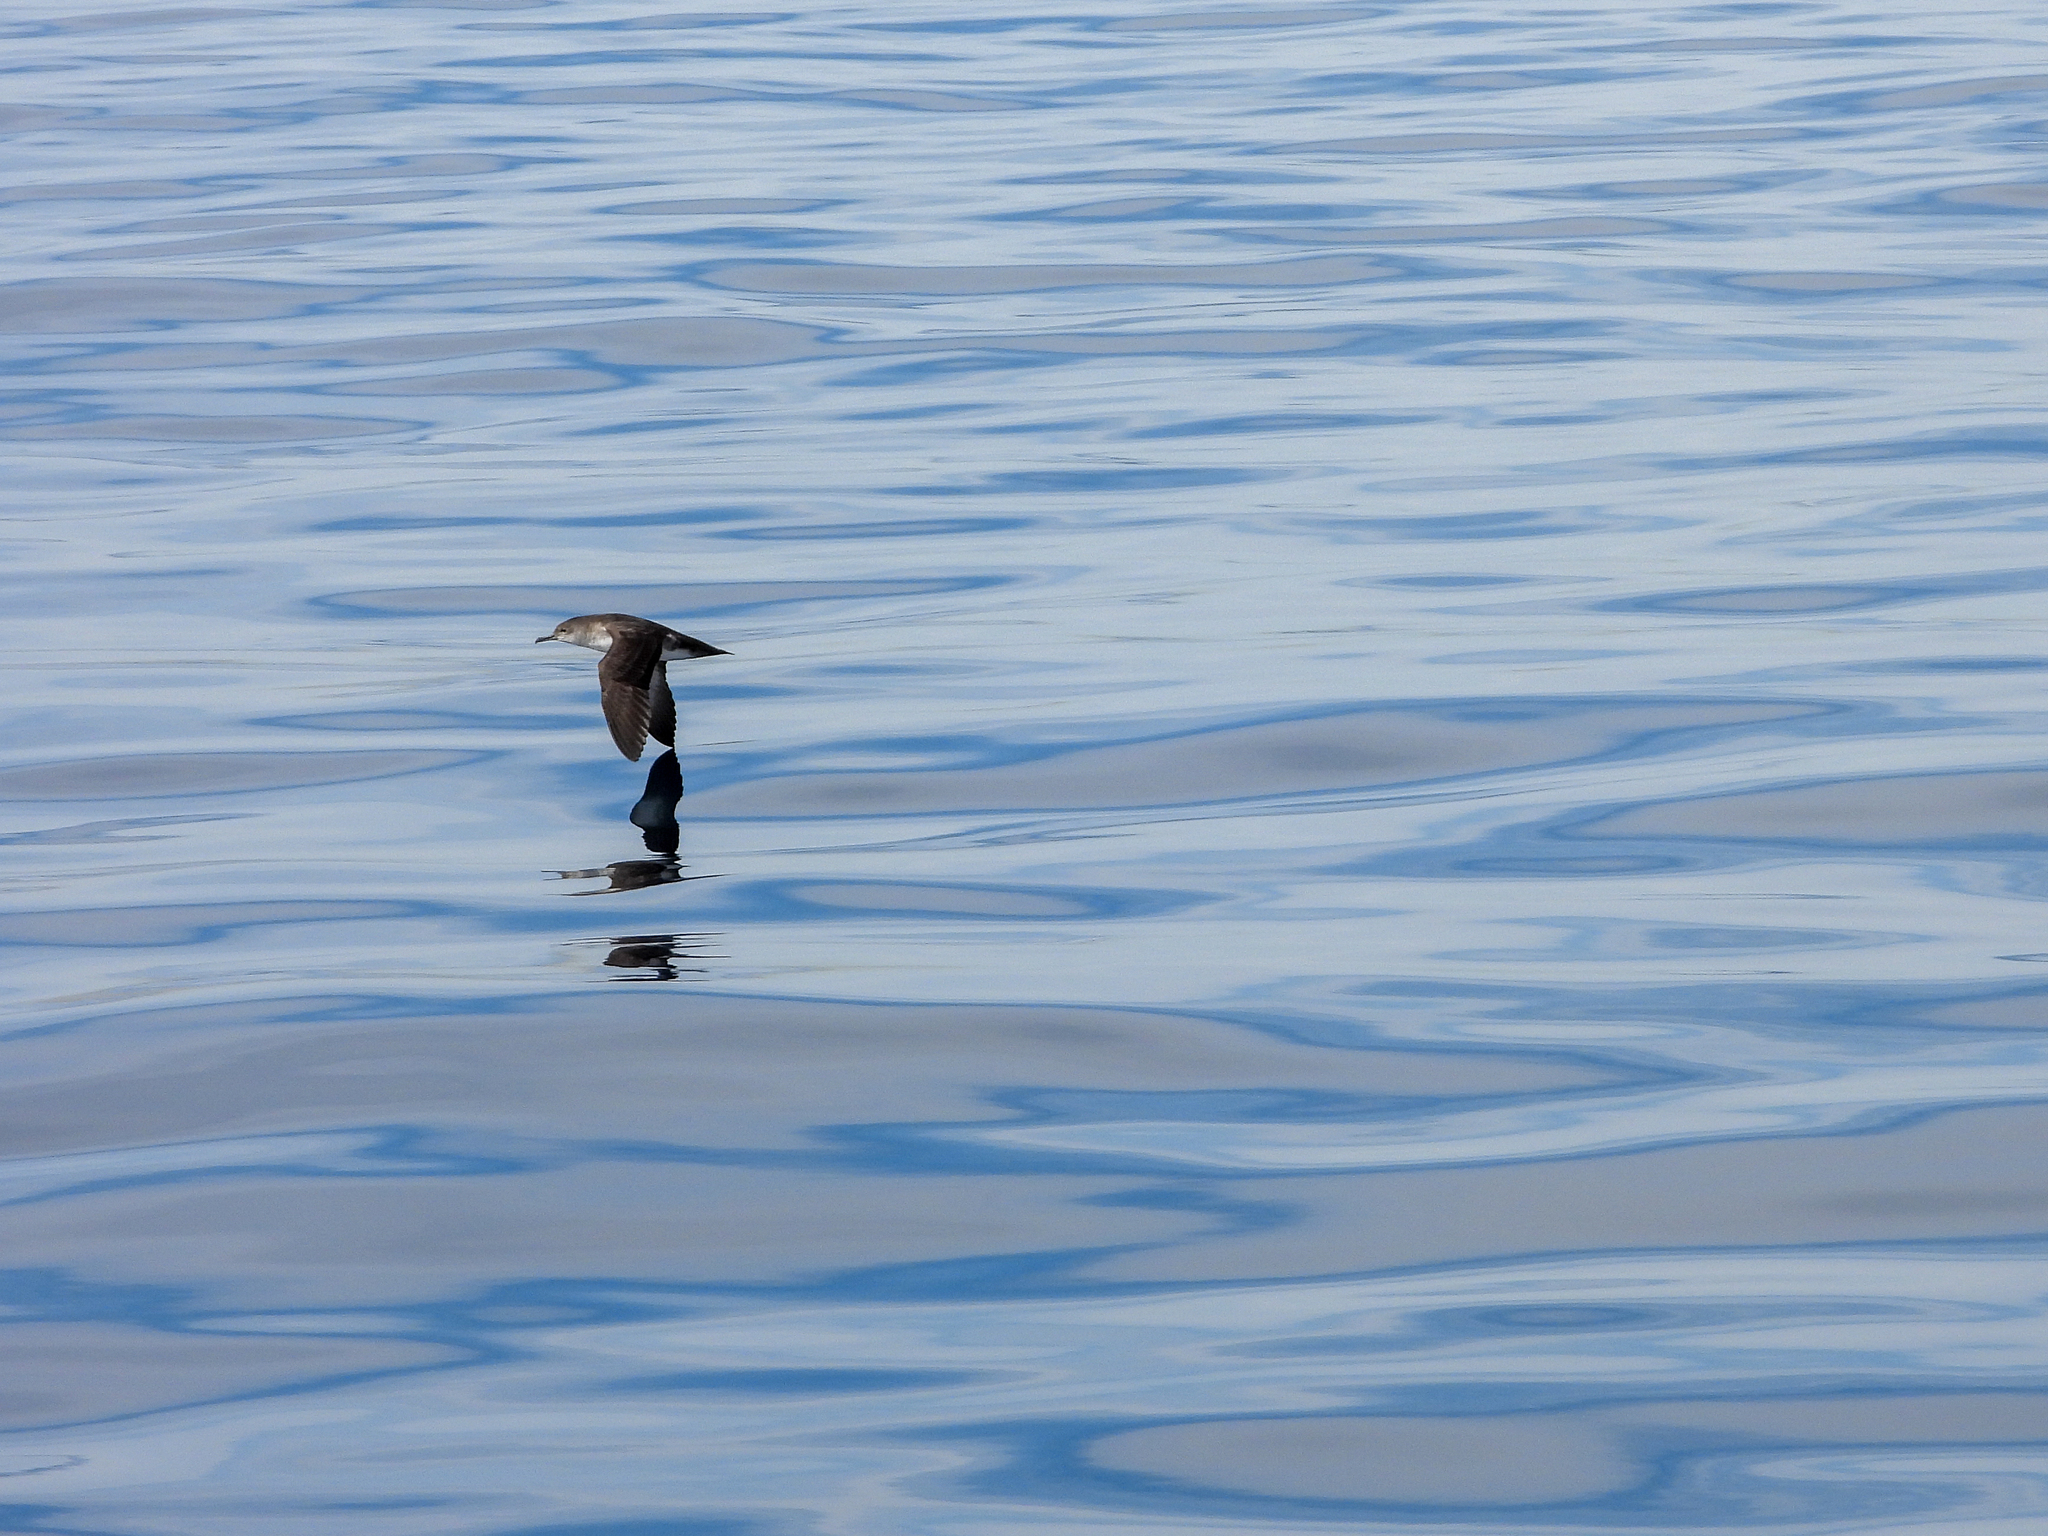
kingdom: Animalia
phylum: Chordata
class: Aves
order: Procellariiformes
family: Procellariidae
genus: Puffinus
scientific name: Puffinus opisthomelas
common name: Black-vented shearwater
